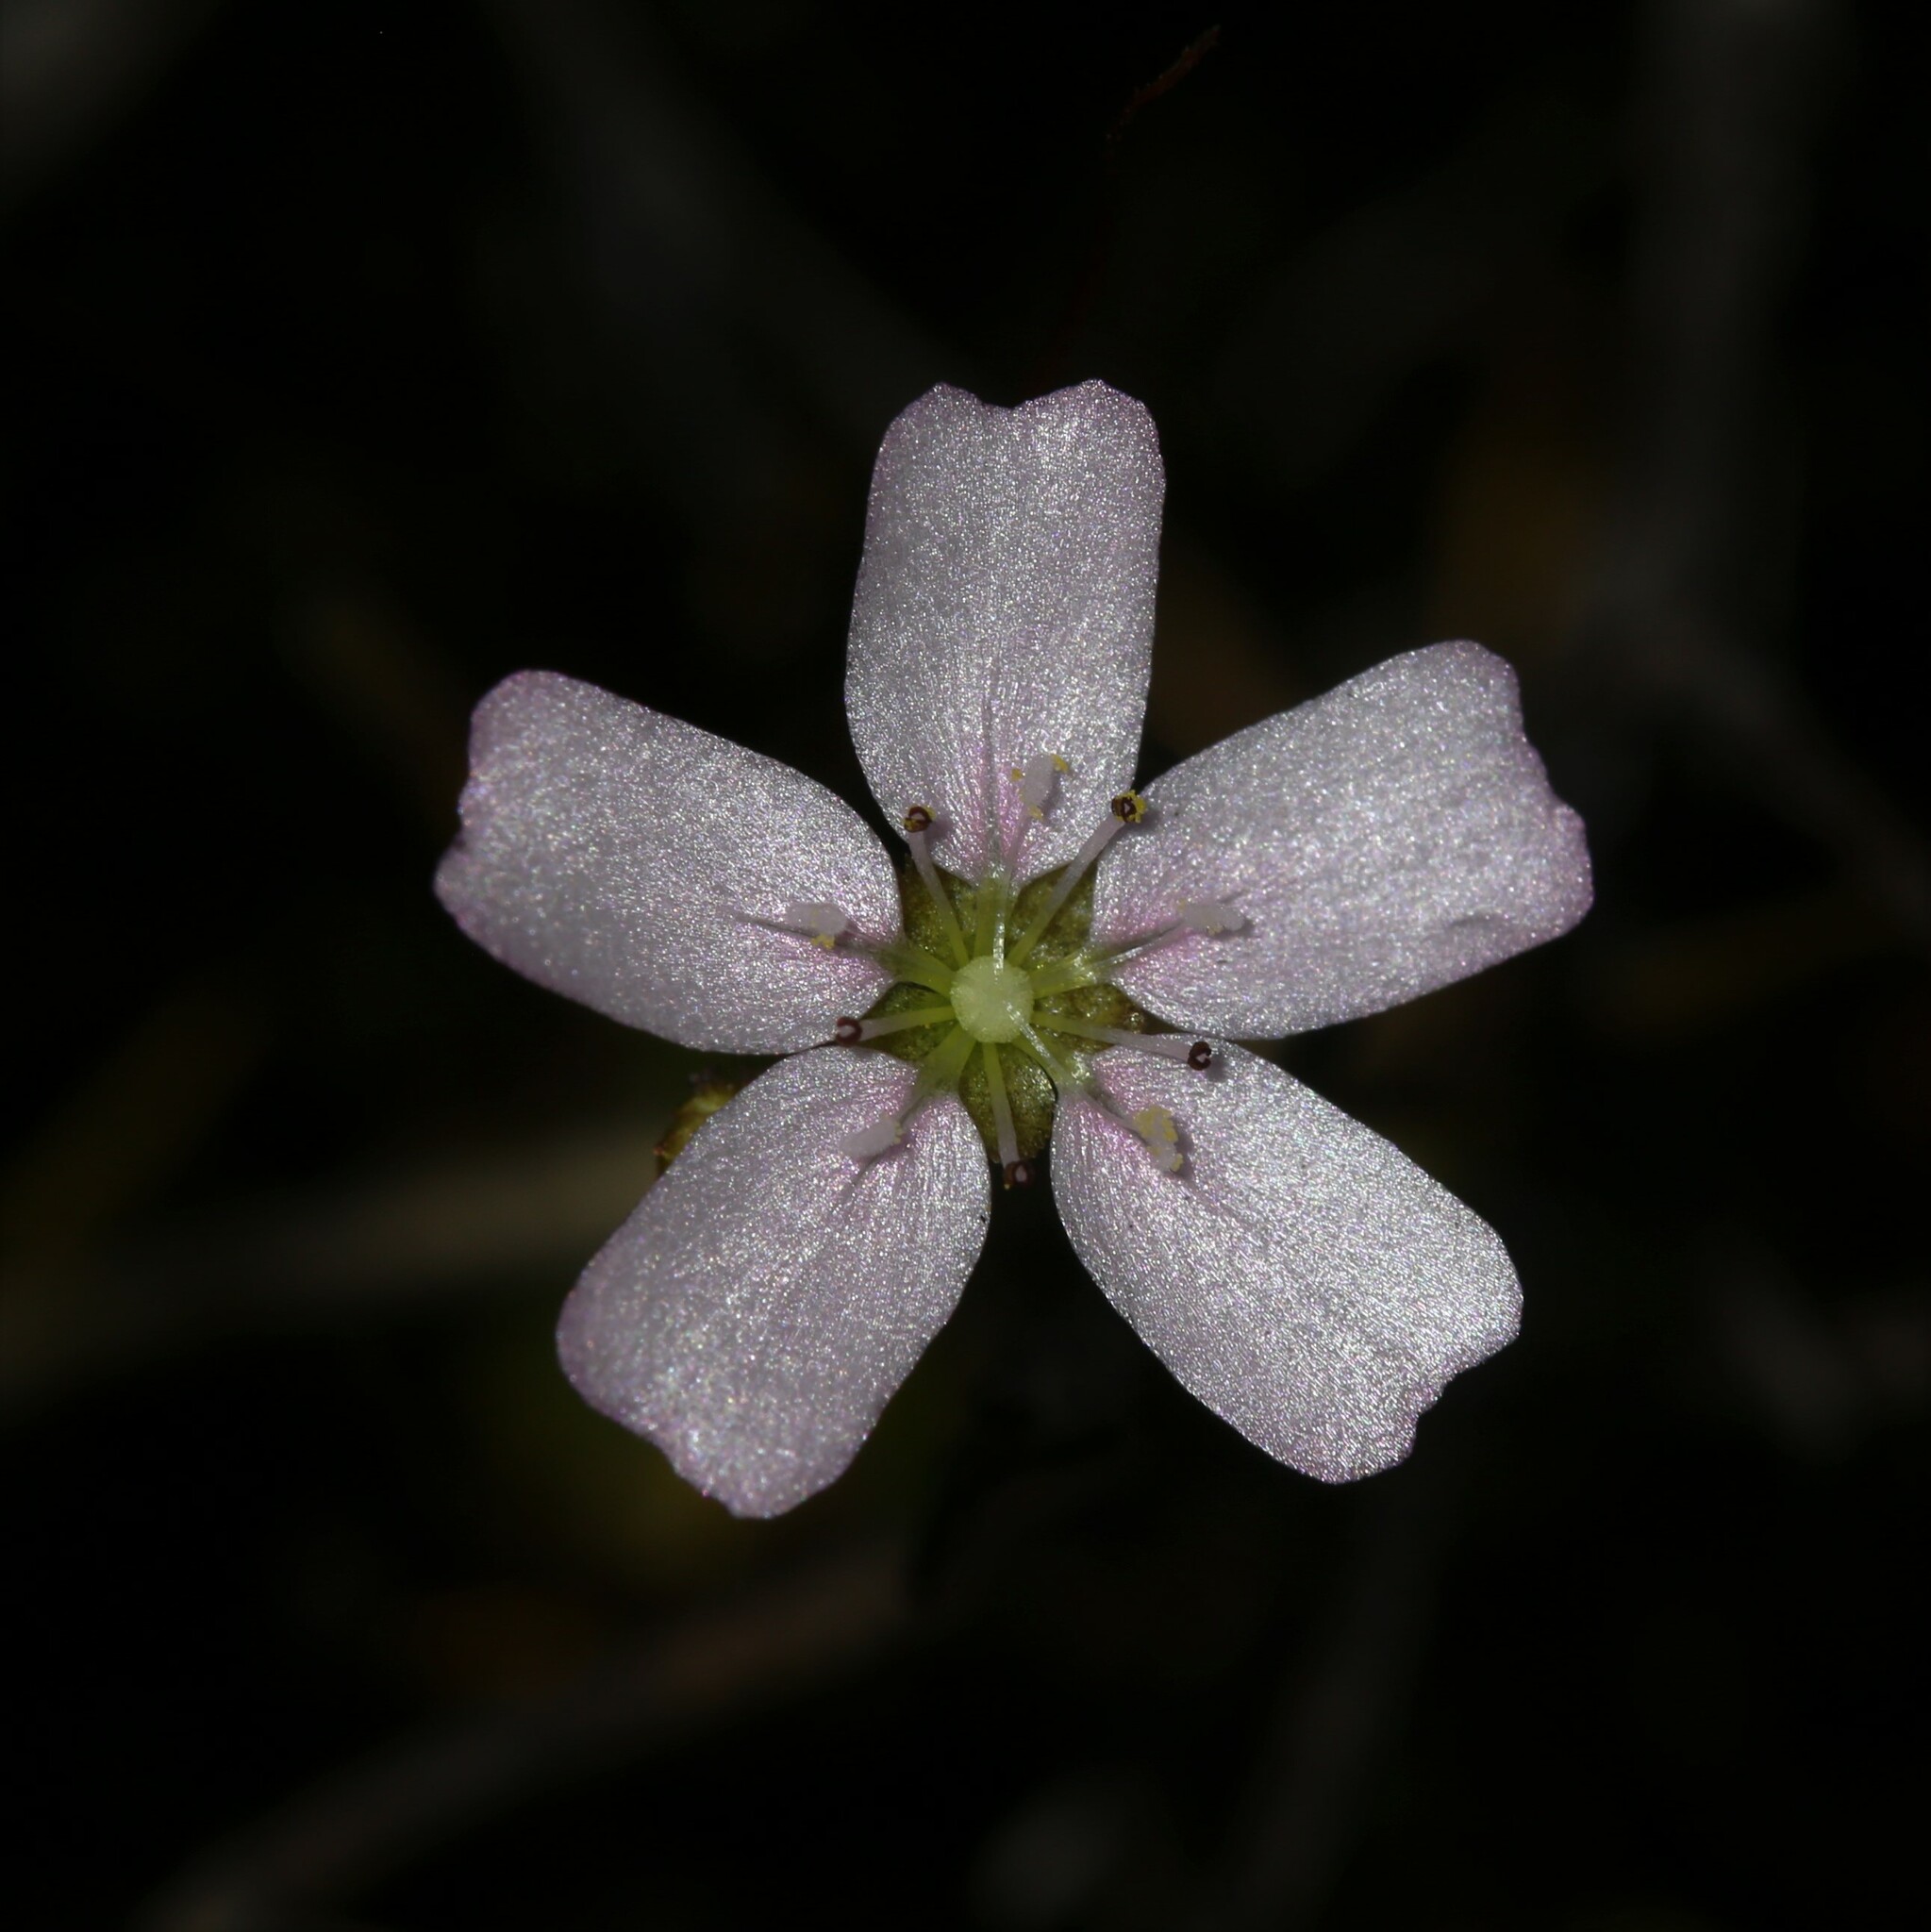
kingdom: Plantae
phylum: Tracheophyta
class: Magnoliopsida
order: Caryophyllales
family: Droseraceae
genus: Drosera
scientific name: Drosera mannii
